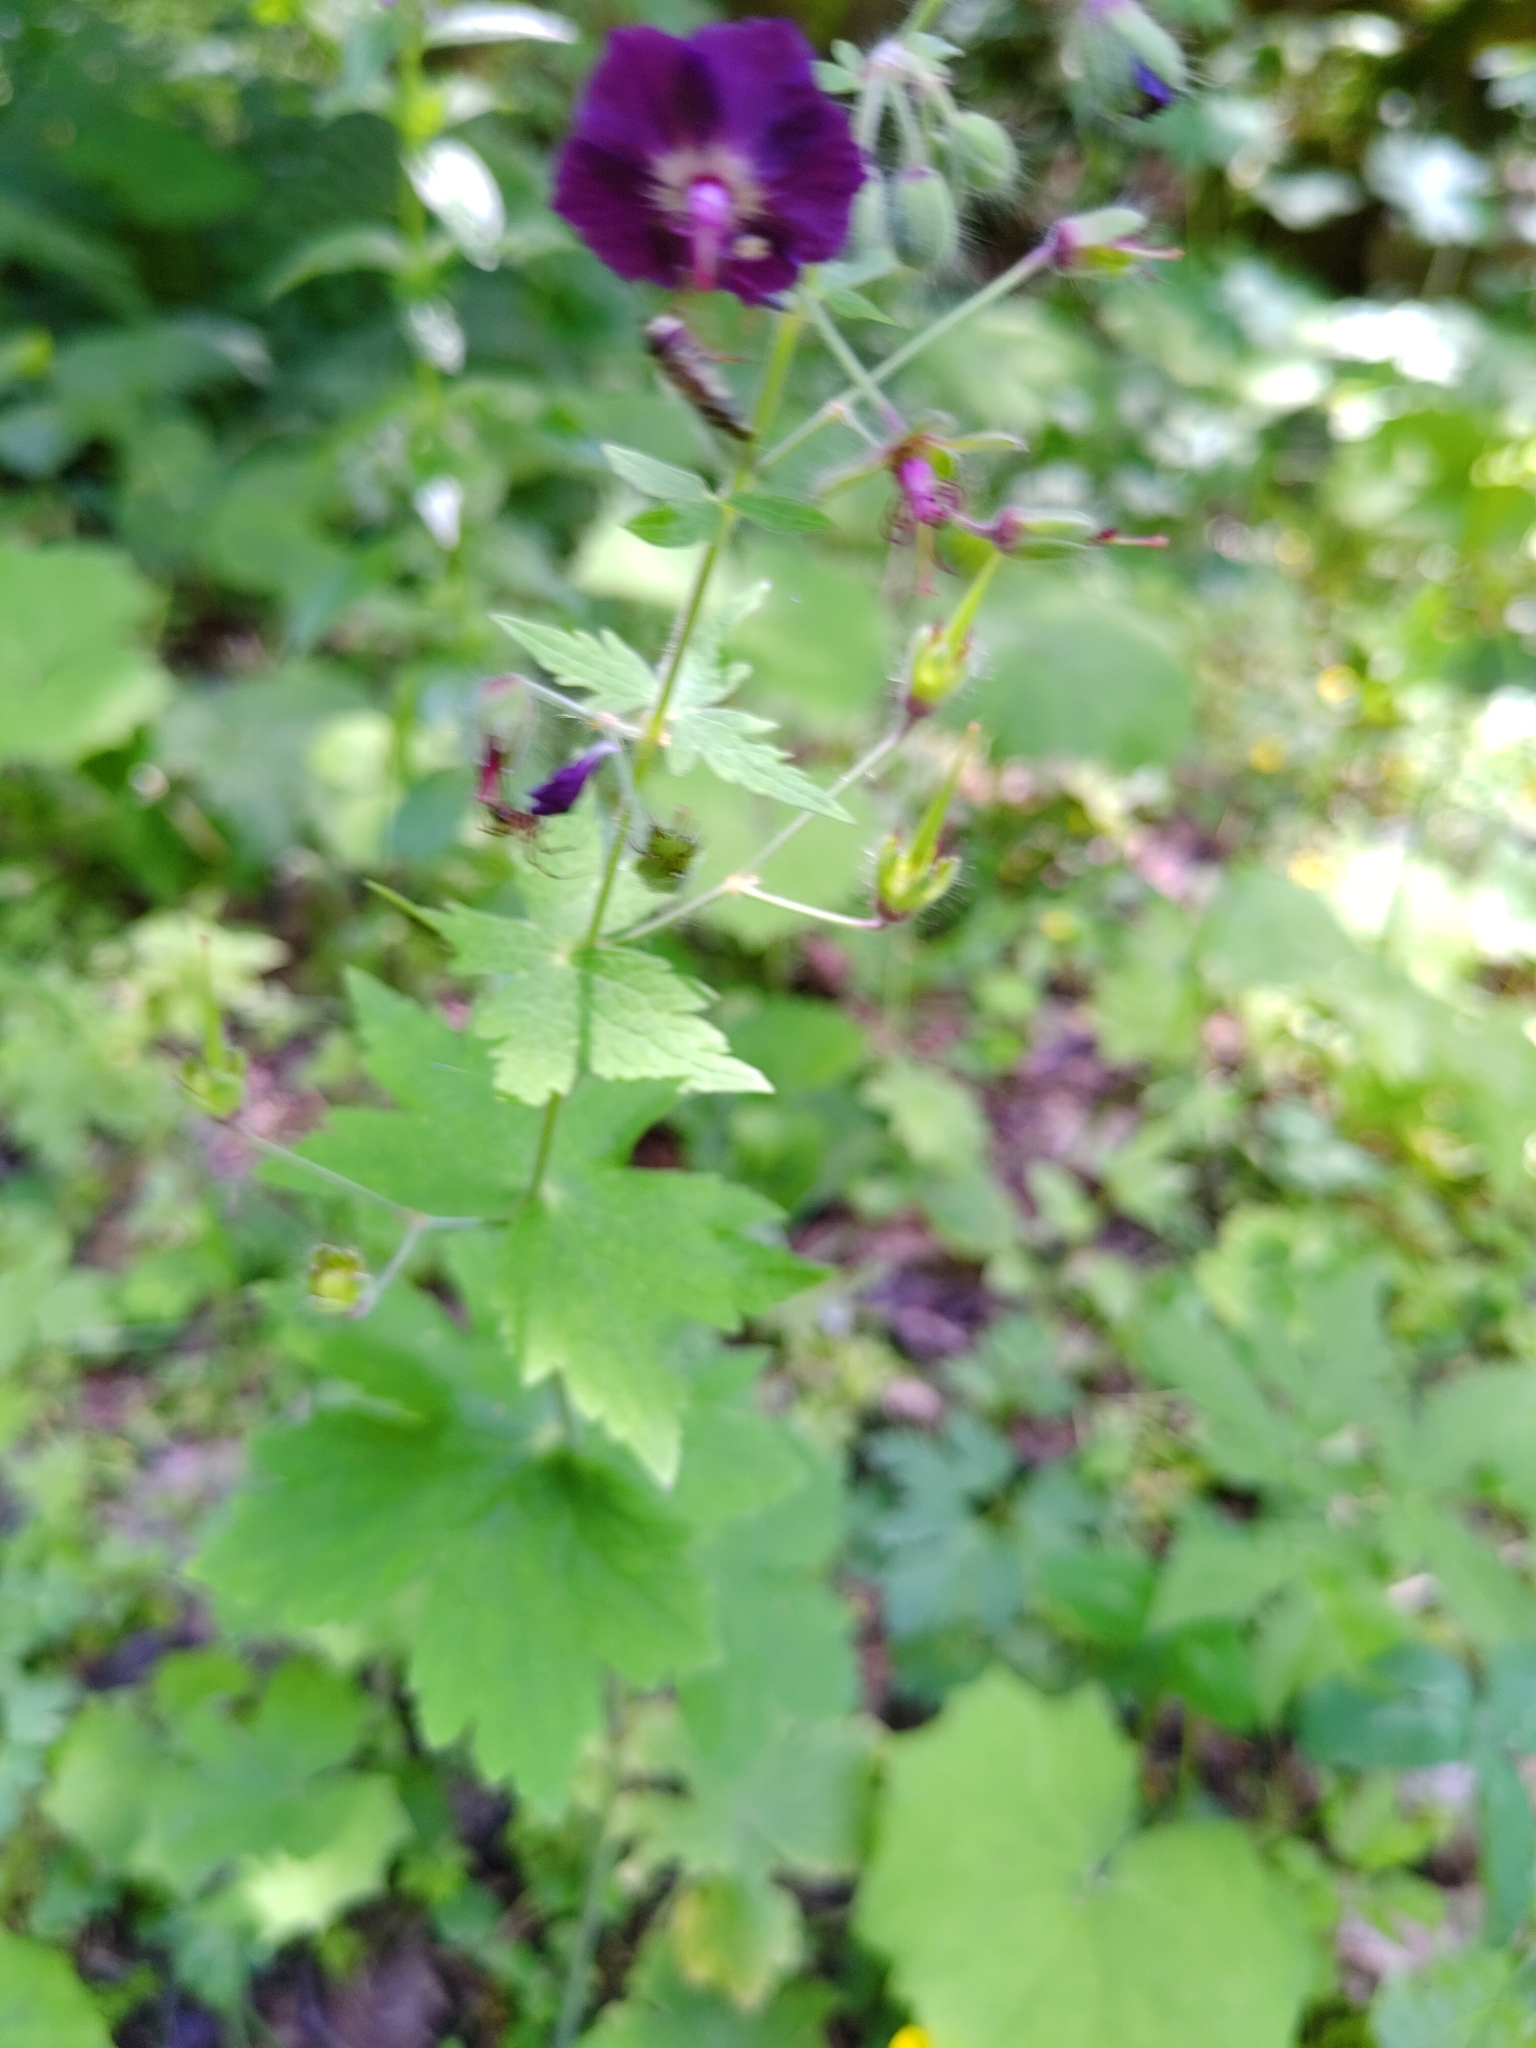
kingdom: Plantae
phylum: Tracheophyta
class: Magnoliopsida
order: Geraniales
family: Geraniaceae
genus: Geranium
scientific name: Geranium phaeum
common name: Dusky crane's-bill
